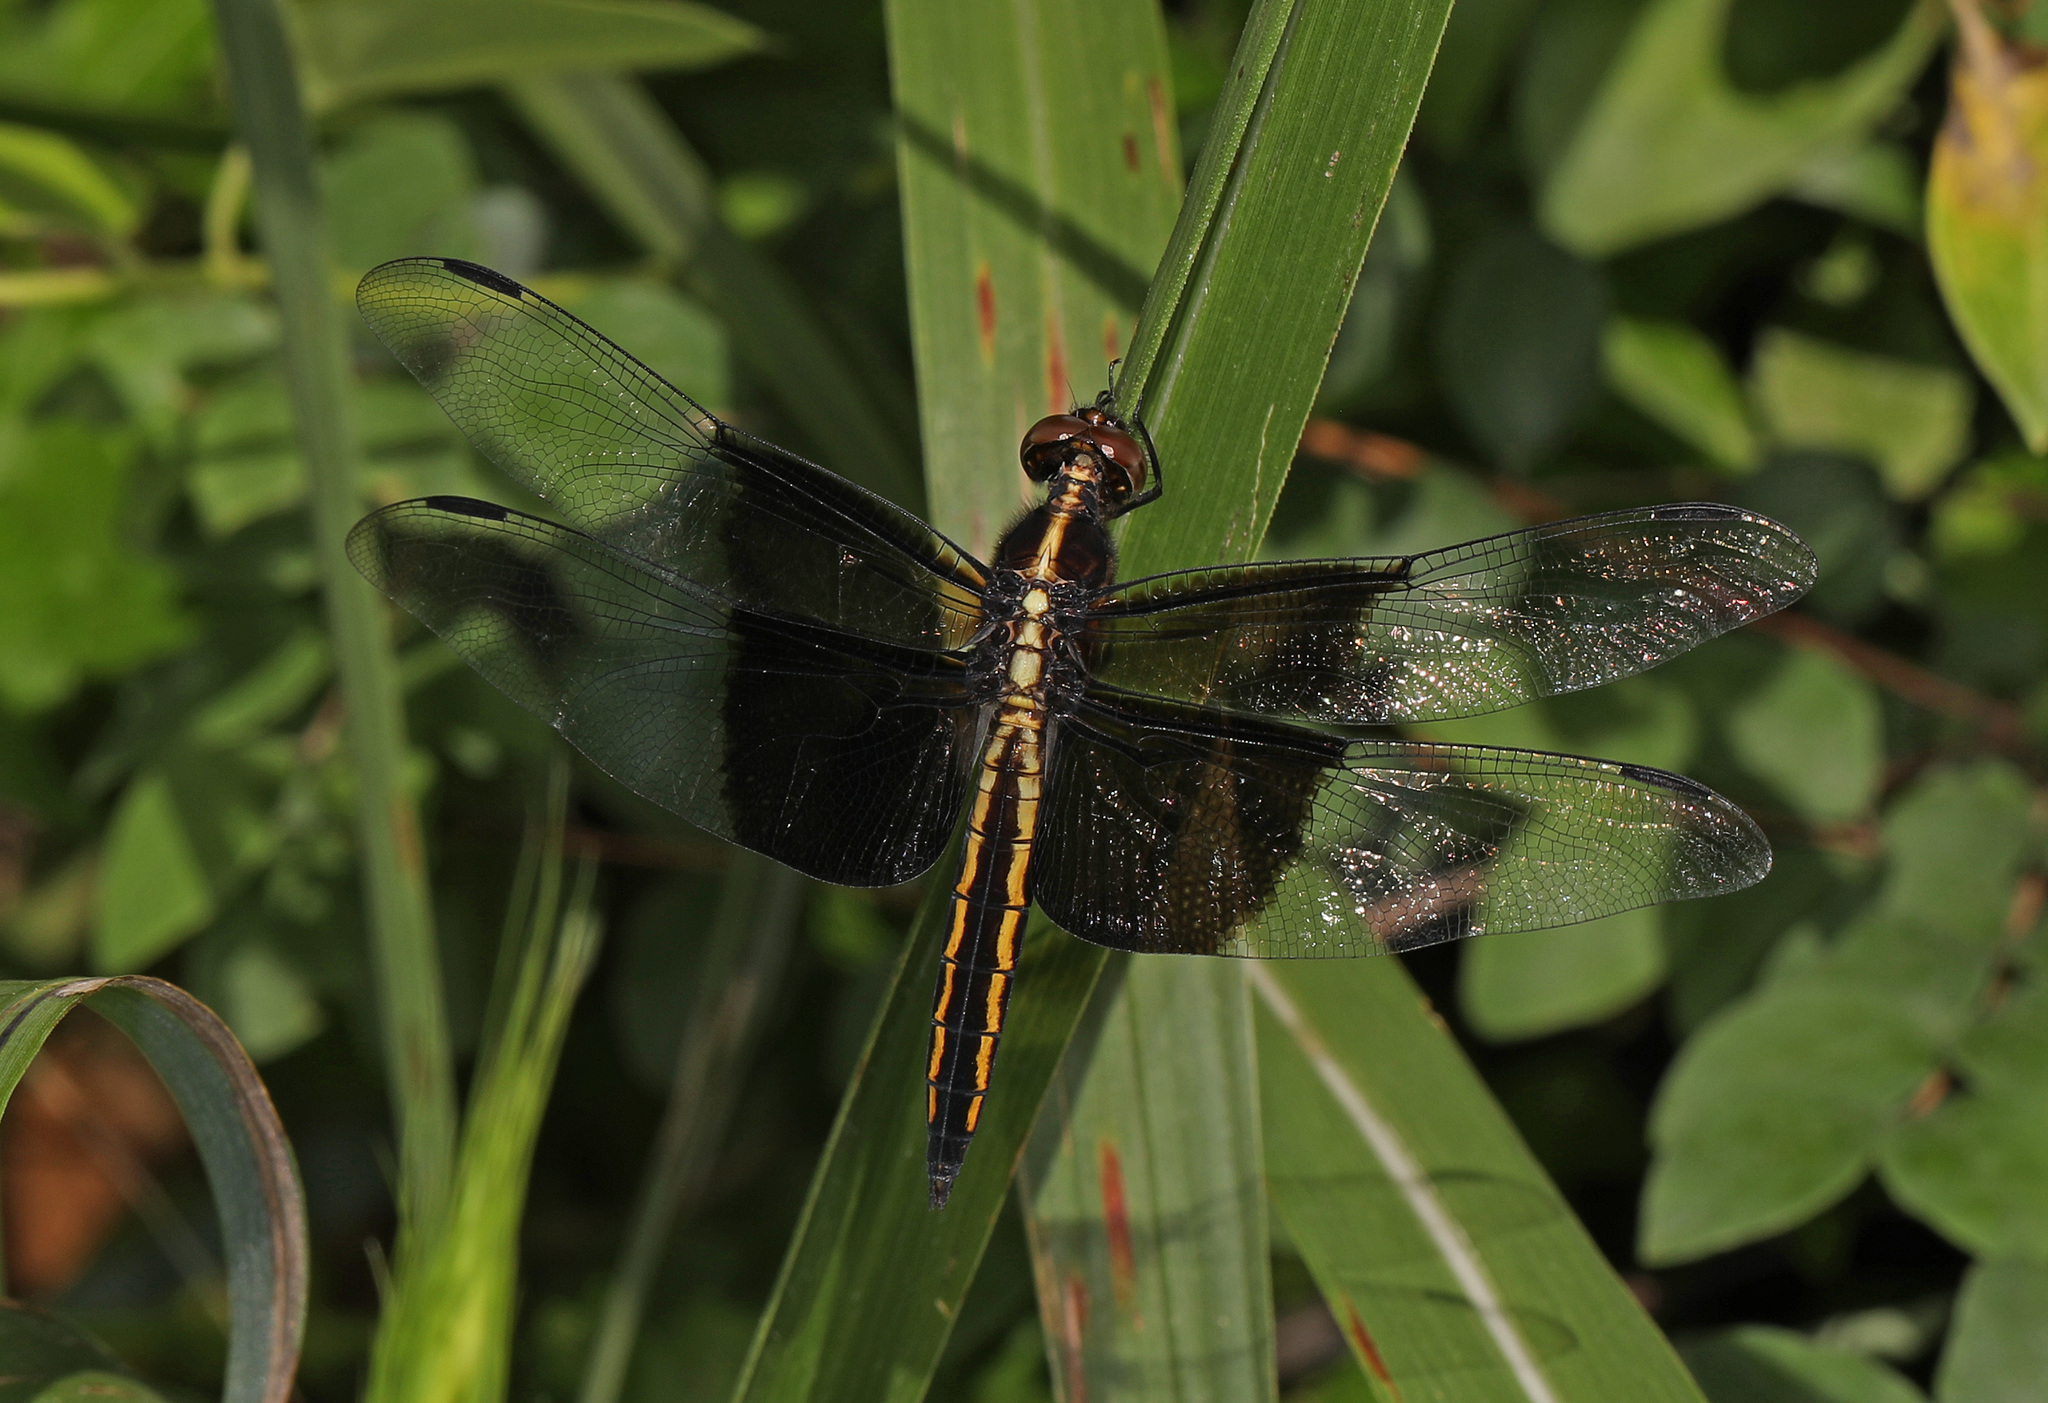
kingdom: Animalia
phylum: Arthropoda
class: Insecta
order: Odonata
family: Libellulidae
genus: Libellula
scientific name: Libellula luctuosa
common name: Widow skimmer
